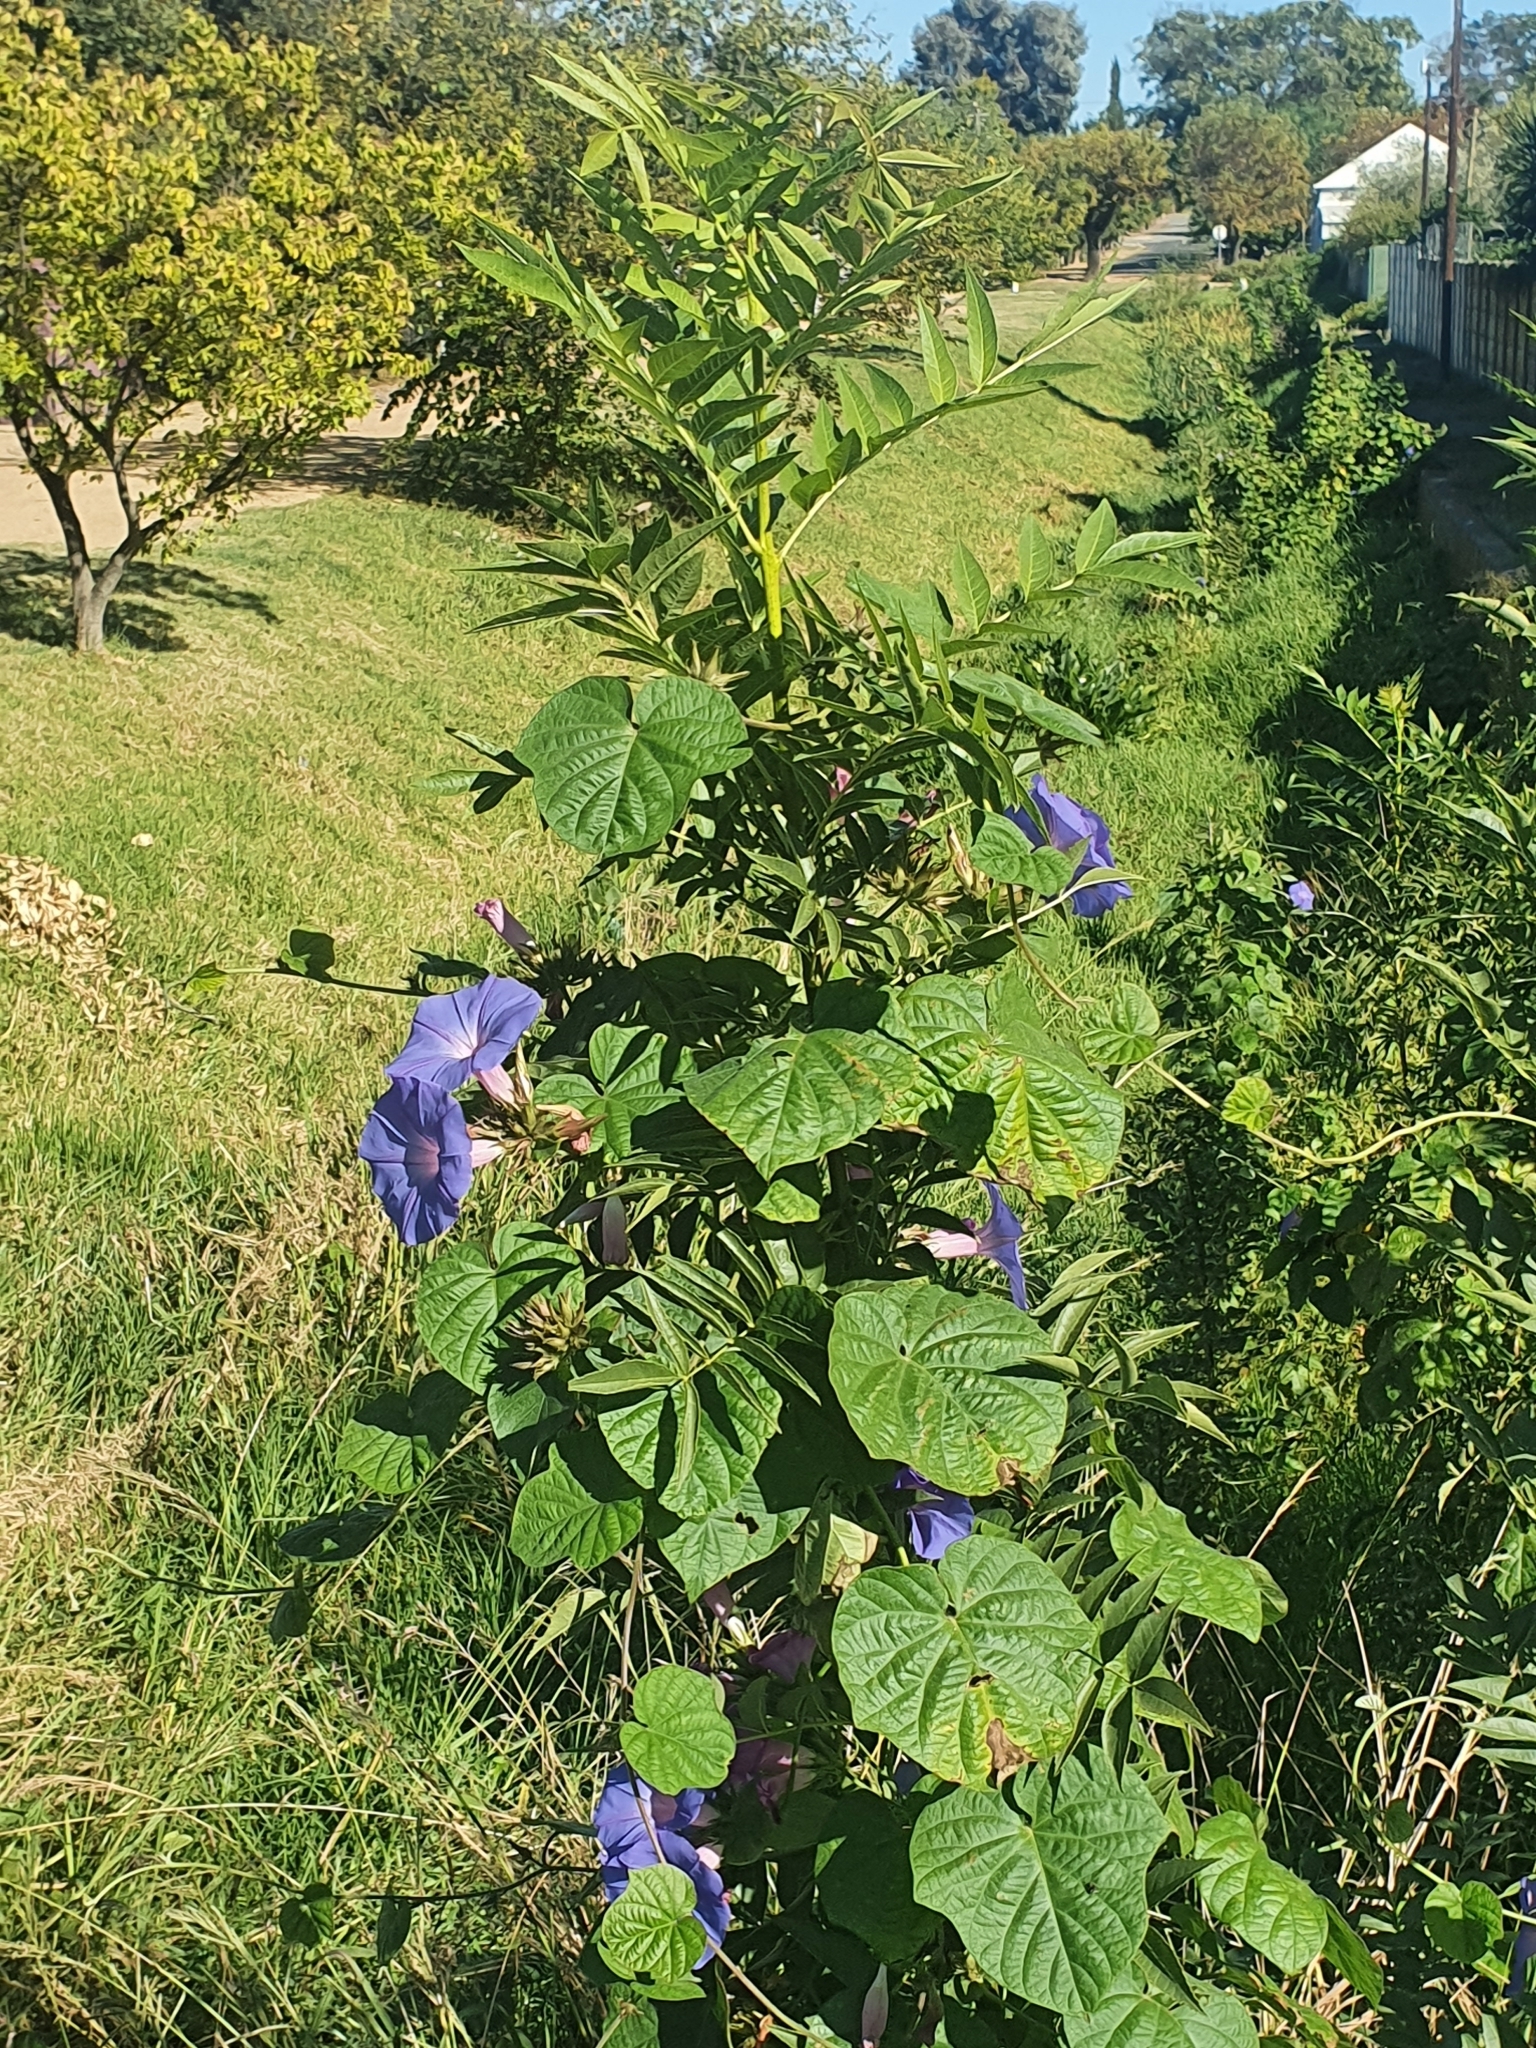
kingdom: Plantae
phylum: Tracheophyta
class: Magnoliopsida
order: Solanales
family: Convolvulaceae
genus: Ipomoea
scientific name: Ipomoea indica
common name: Blue dawnflower
